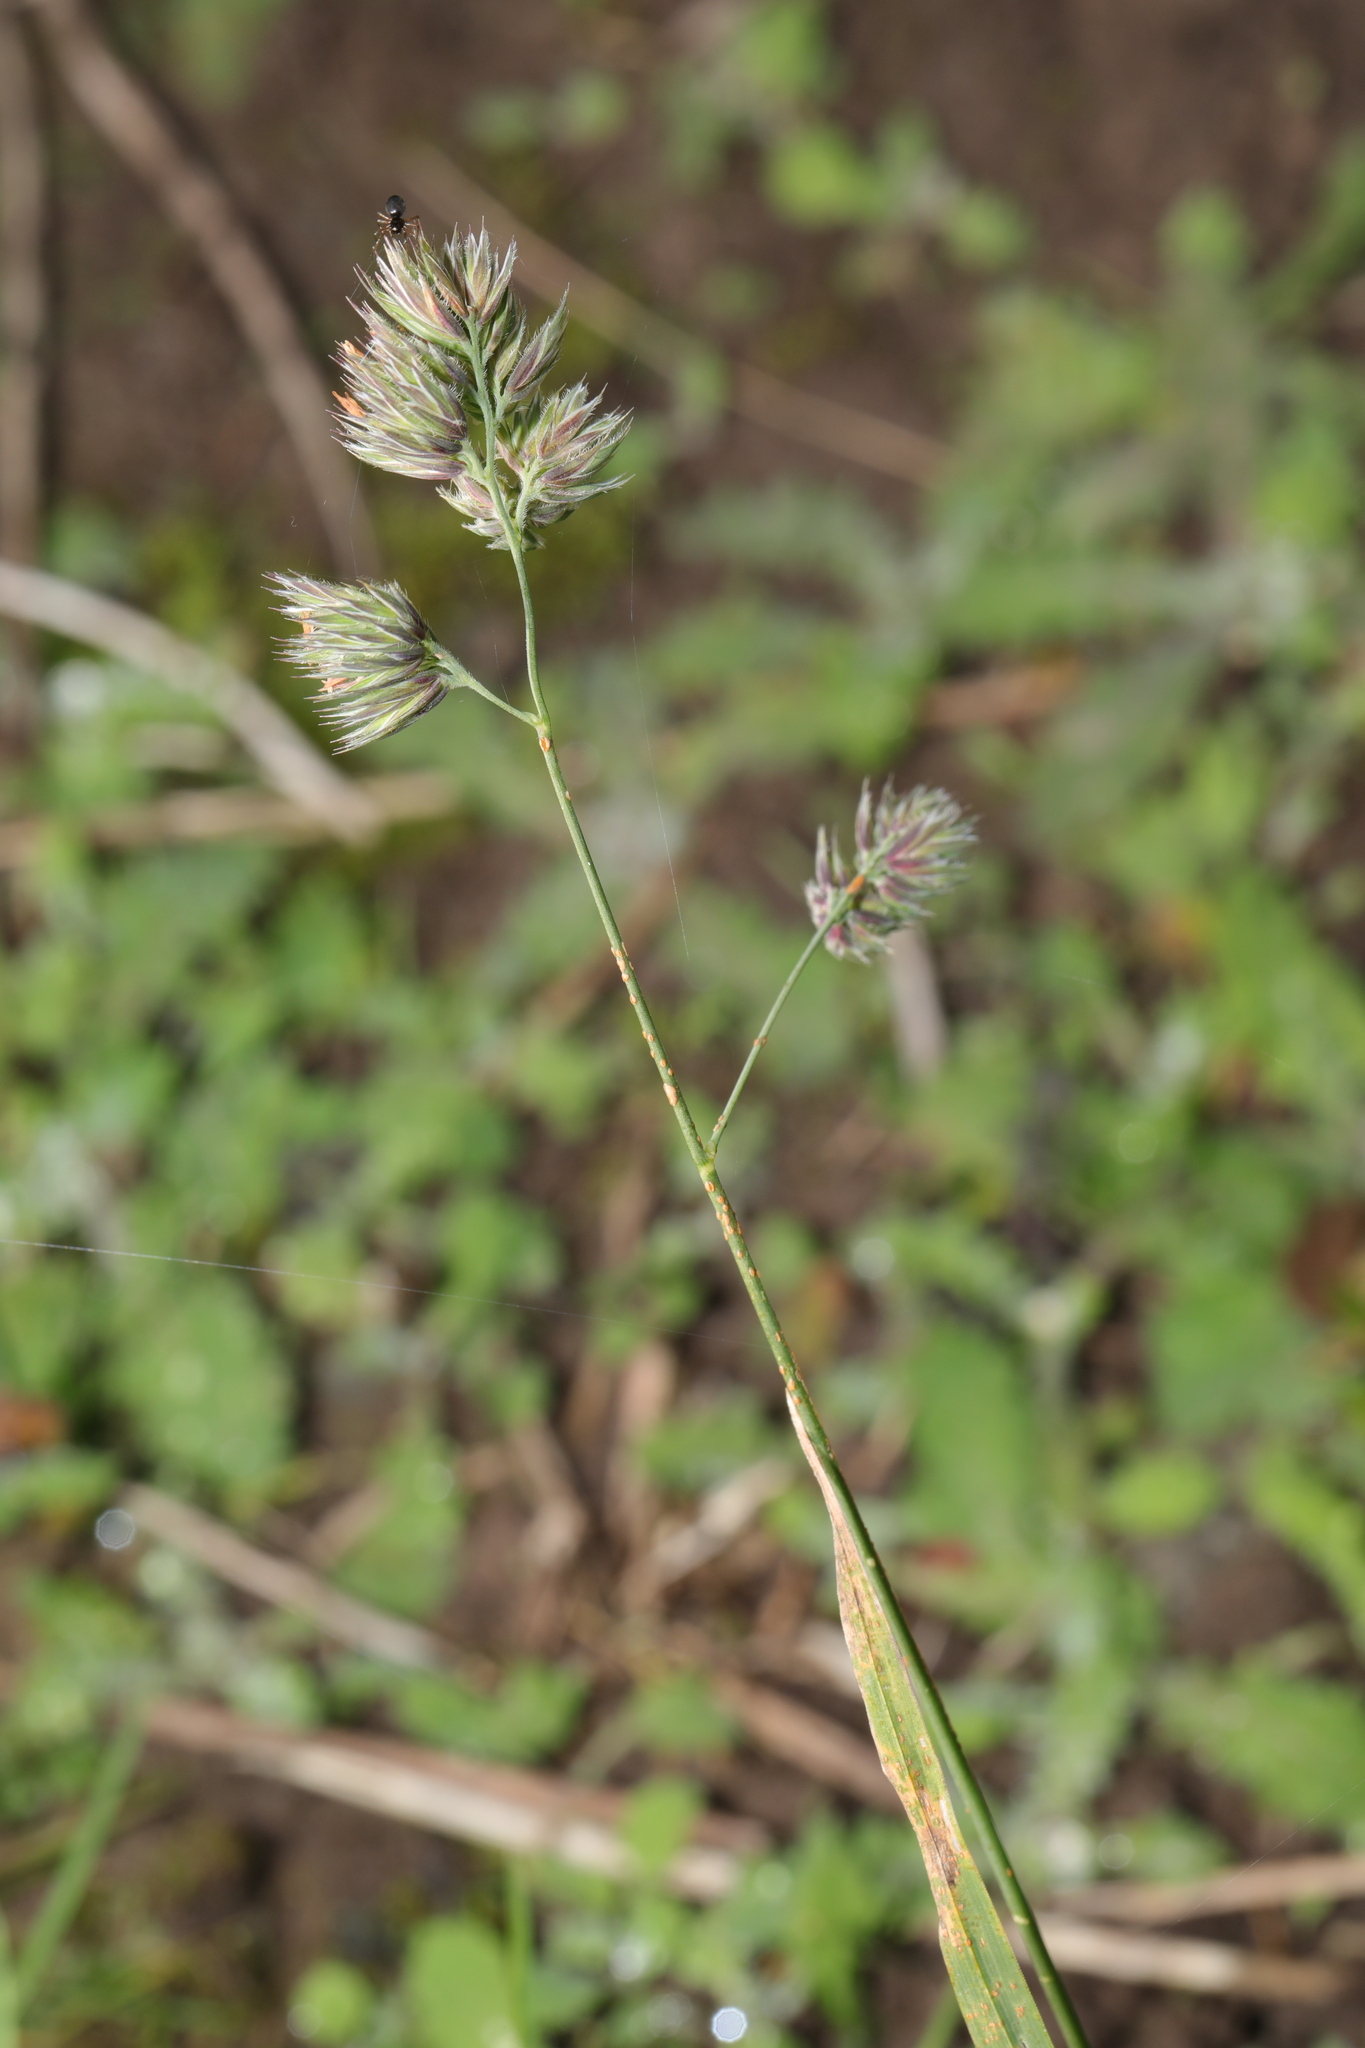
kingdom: Plantae
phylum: Tracheophyta
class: Liliopsida
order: Poales
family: Poaceae
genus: Dactylis
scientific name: Dactylis glomerata
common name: Orchardgrass
